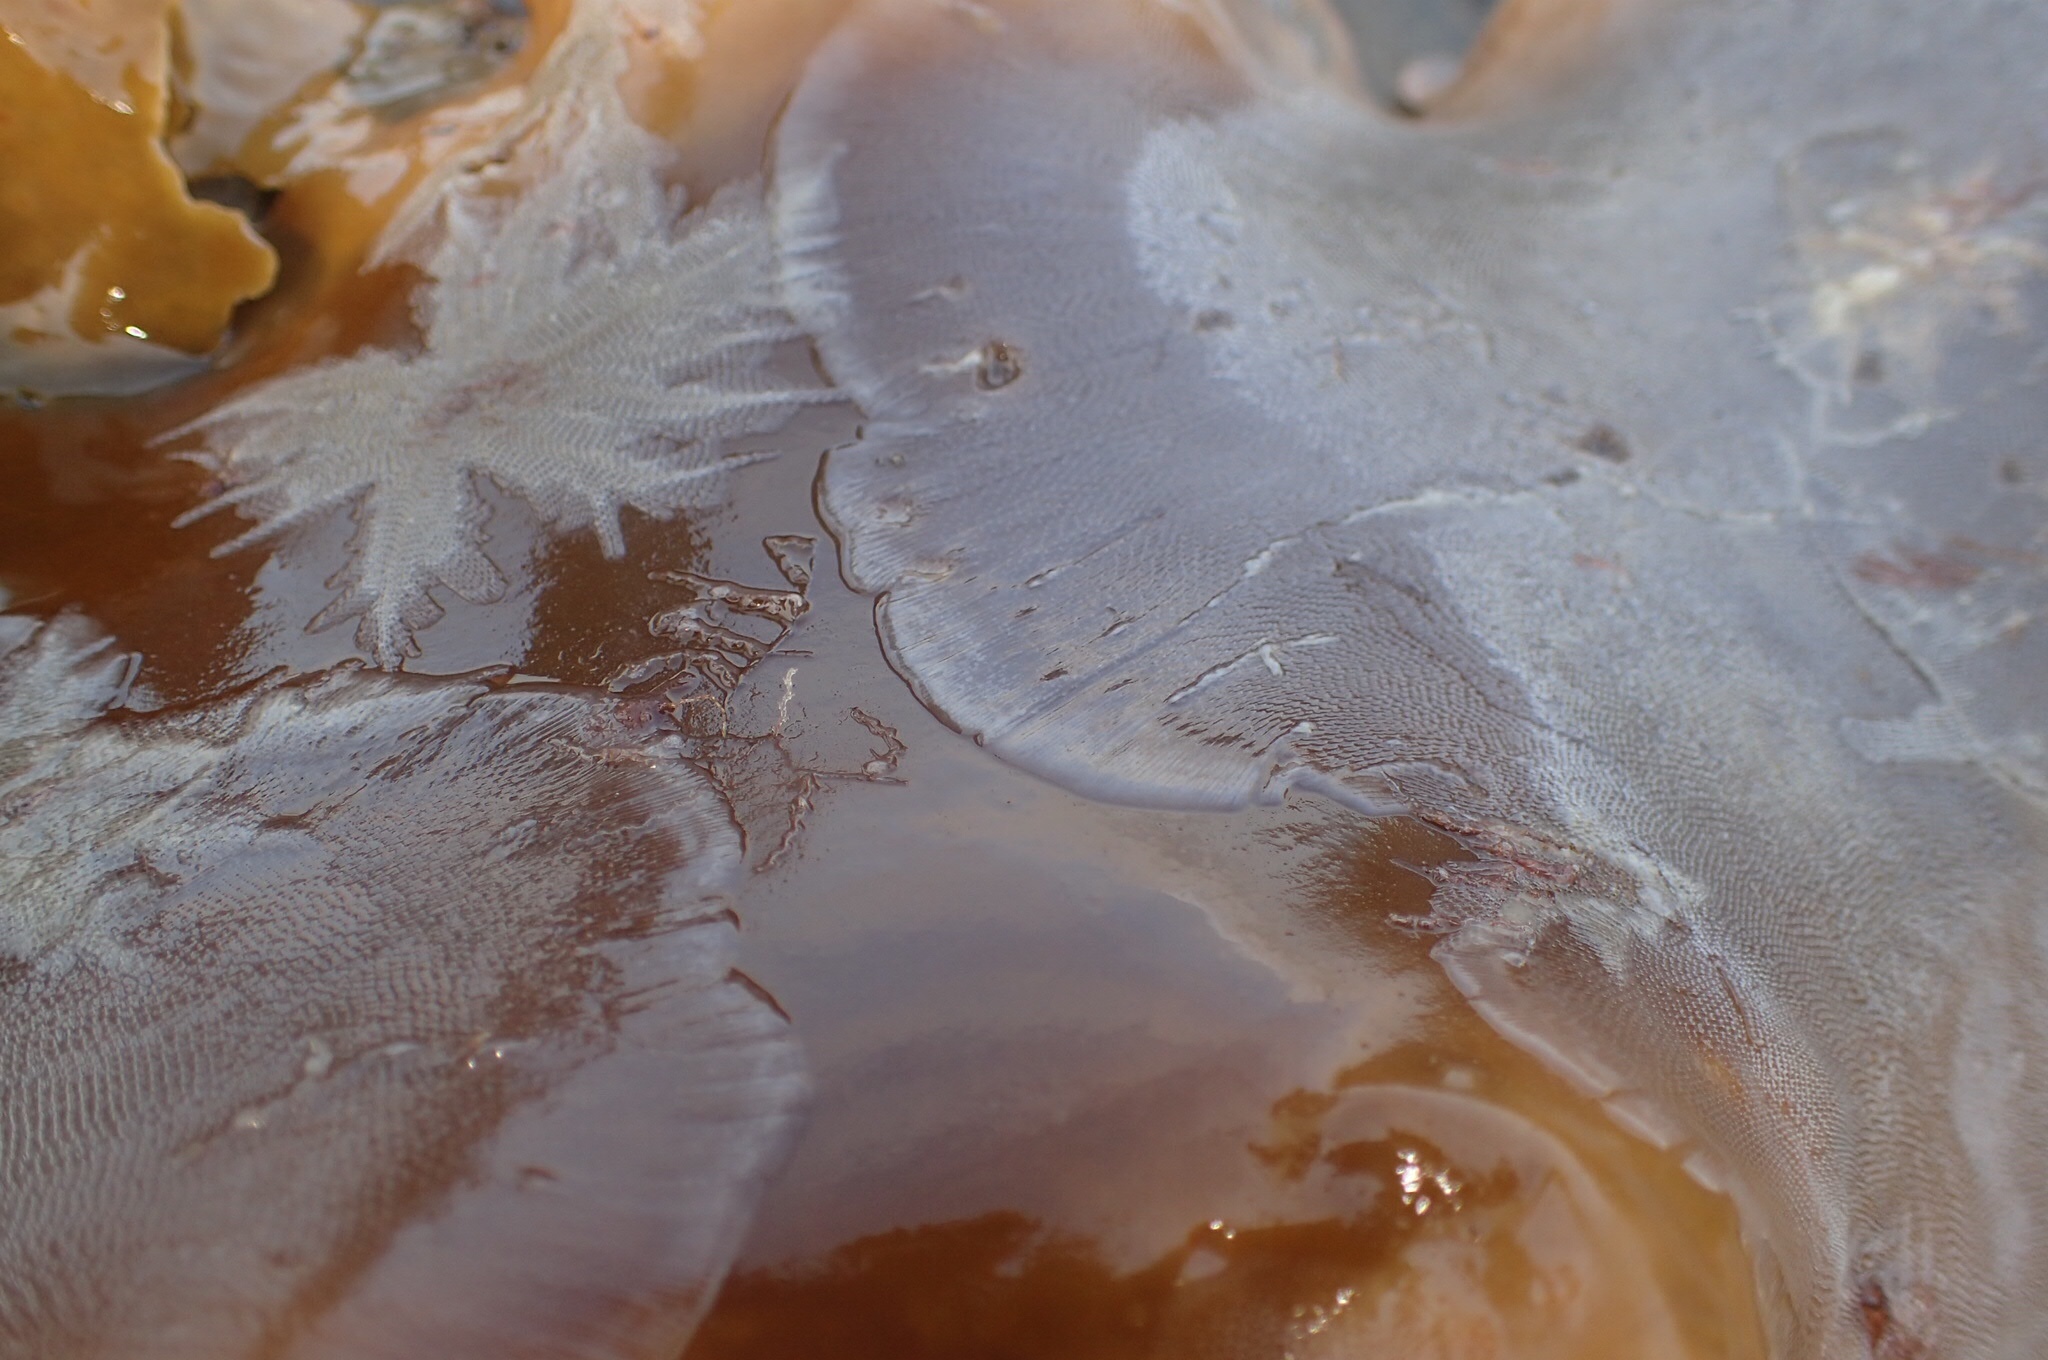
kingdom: Animalia
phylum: Bryozoa
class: Gymnolaemata
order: Cheilostomatida
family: Membraniporidae
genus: Membranipora
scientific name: Membranipora membranacea
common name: Sea mat
